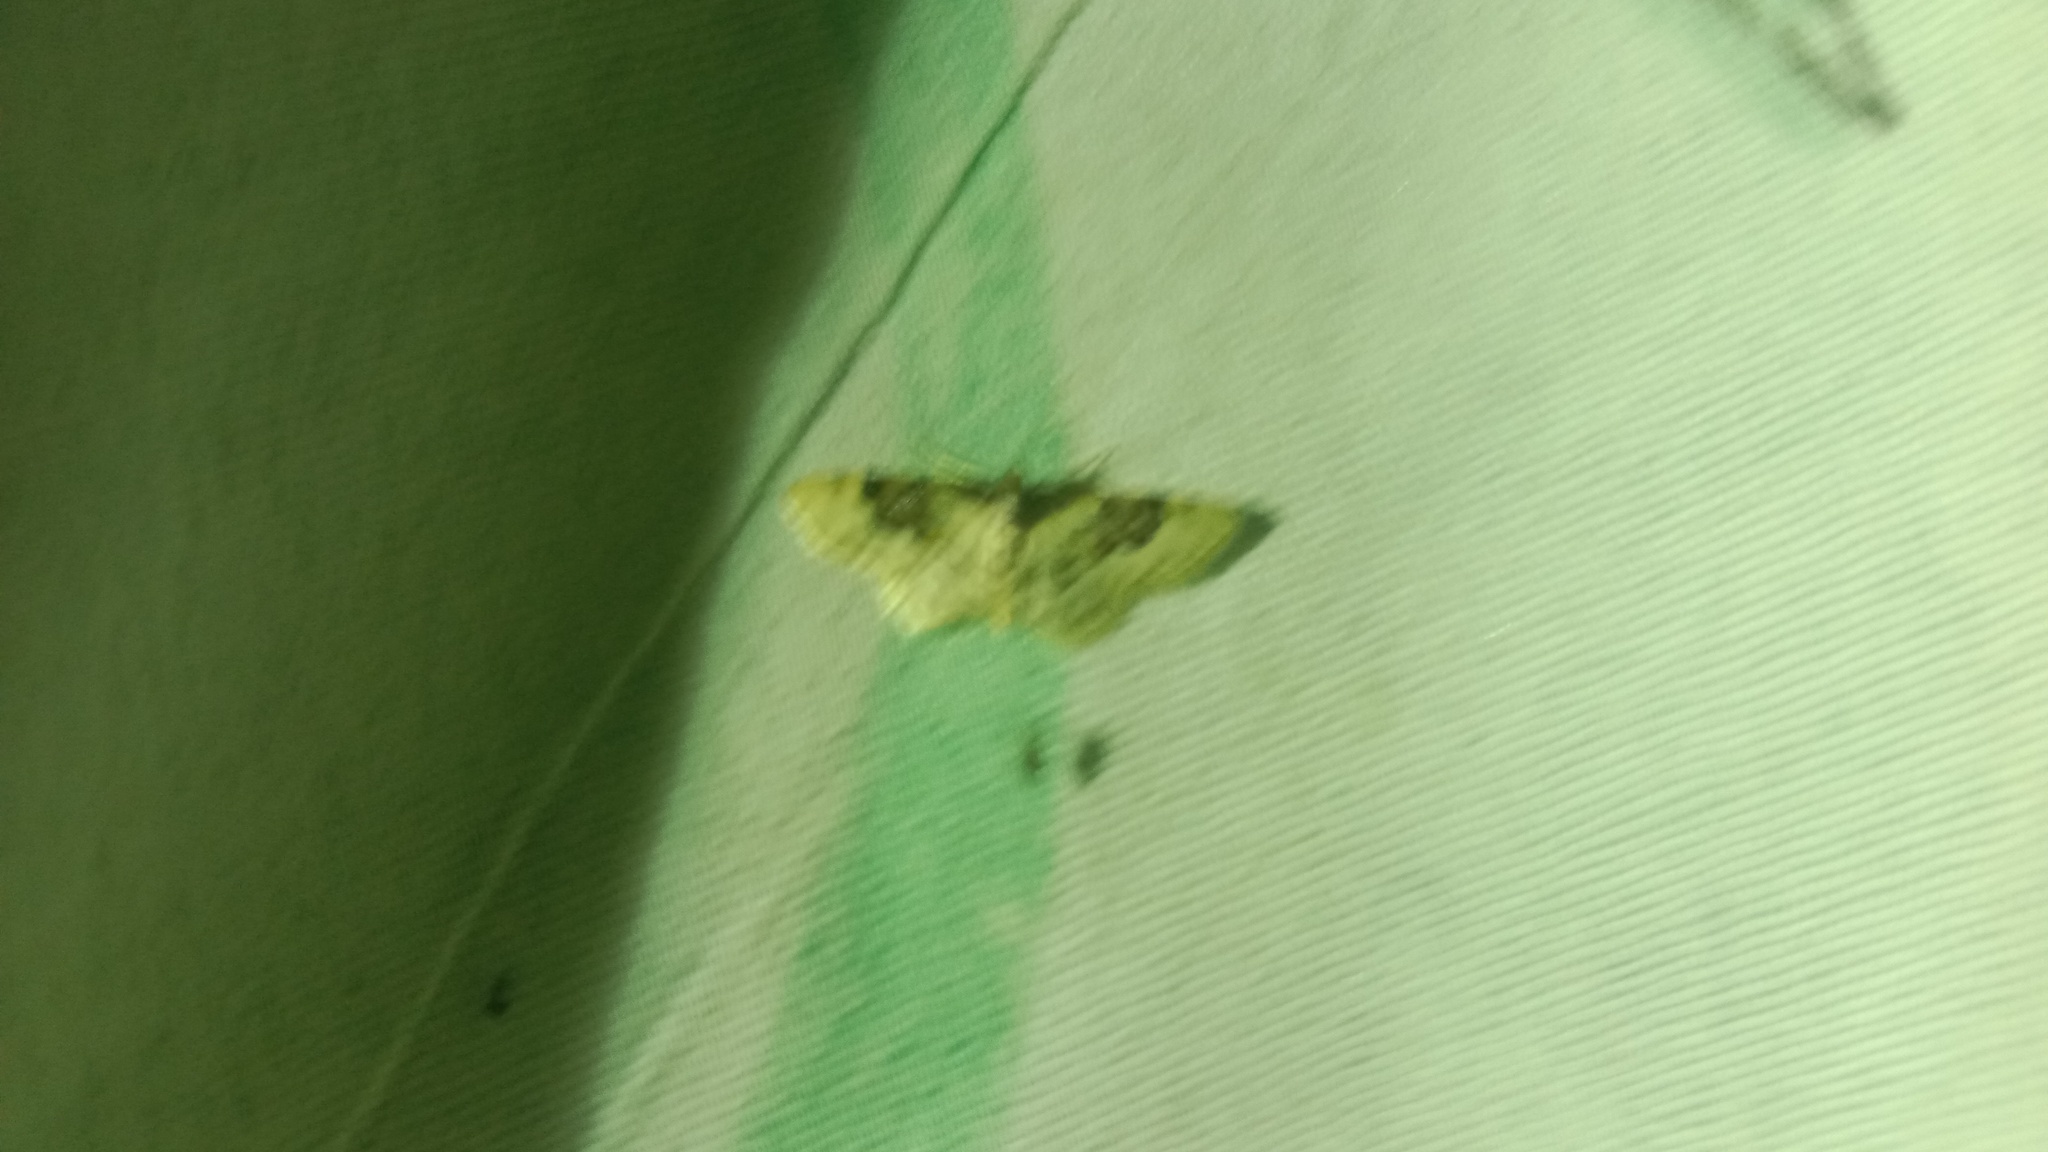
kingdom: Animalia
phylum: Arthropoda
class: Insecta
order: Lepidoptera
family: Geometridae
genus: Idaea
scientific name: Idaea rusticata
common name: Least carpet
